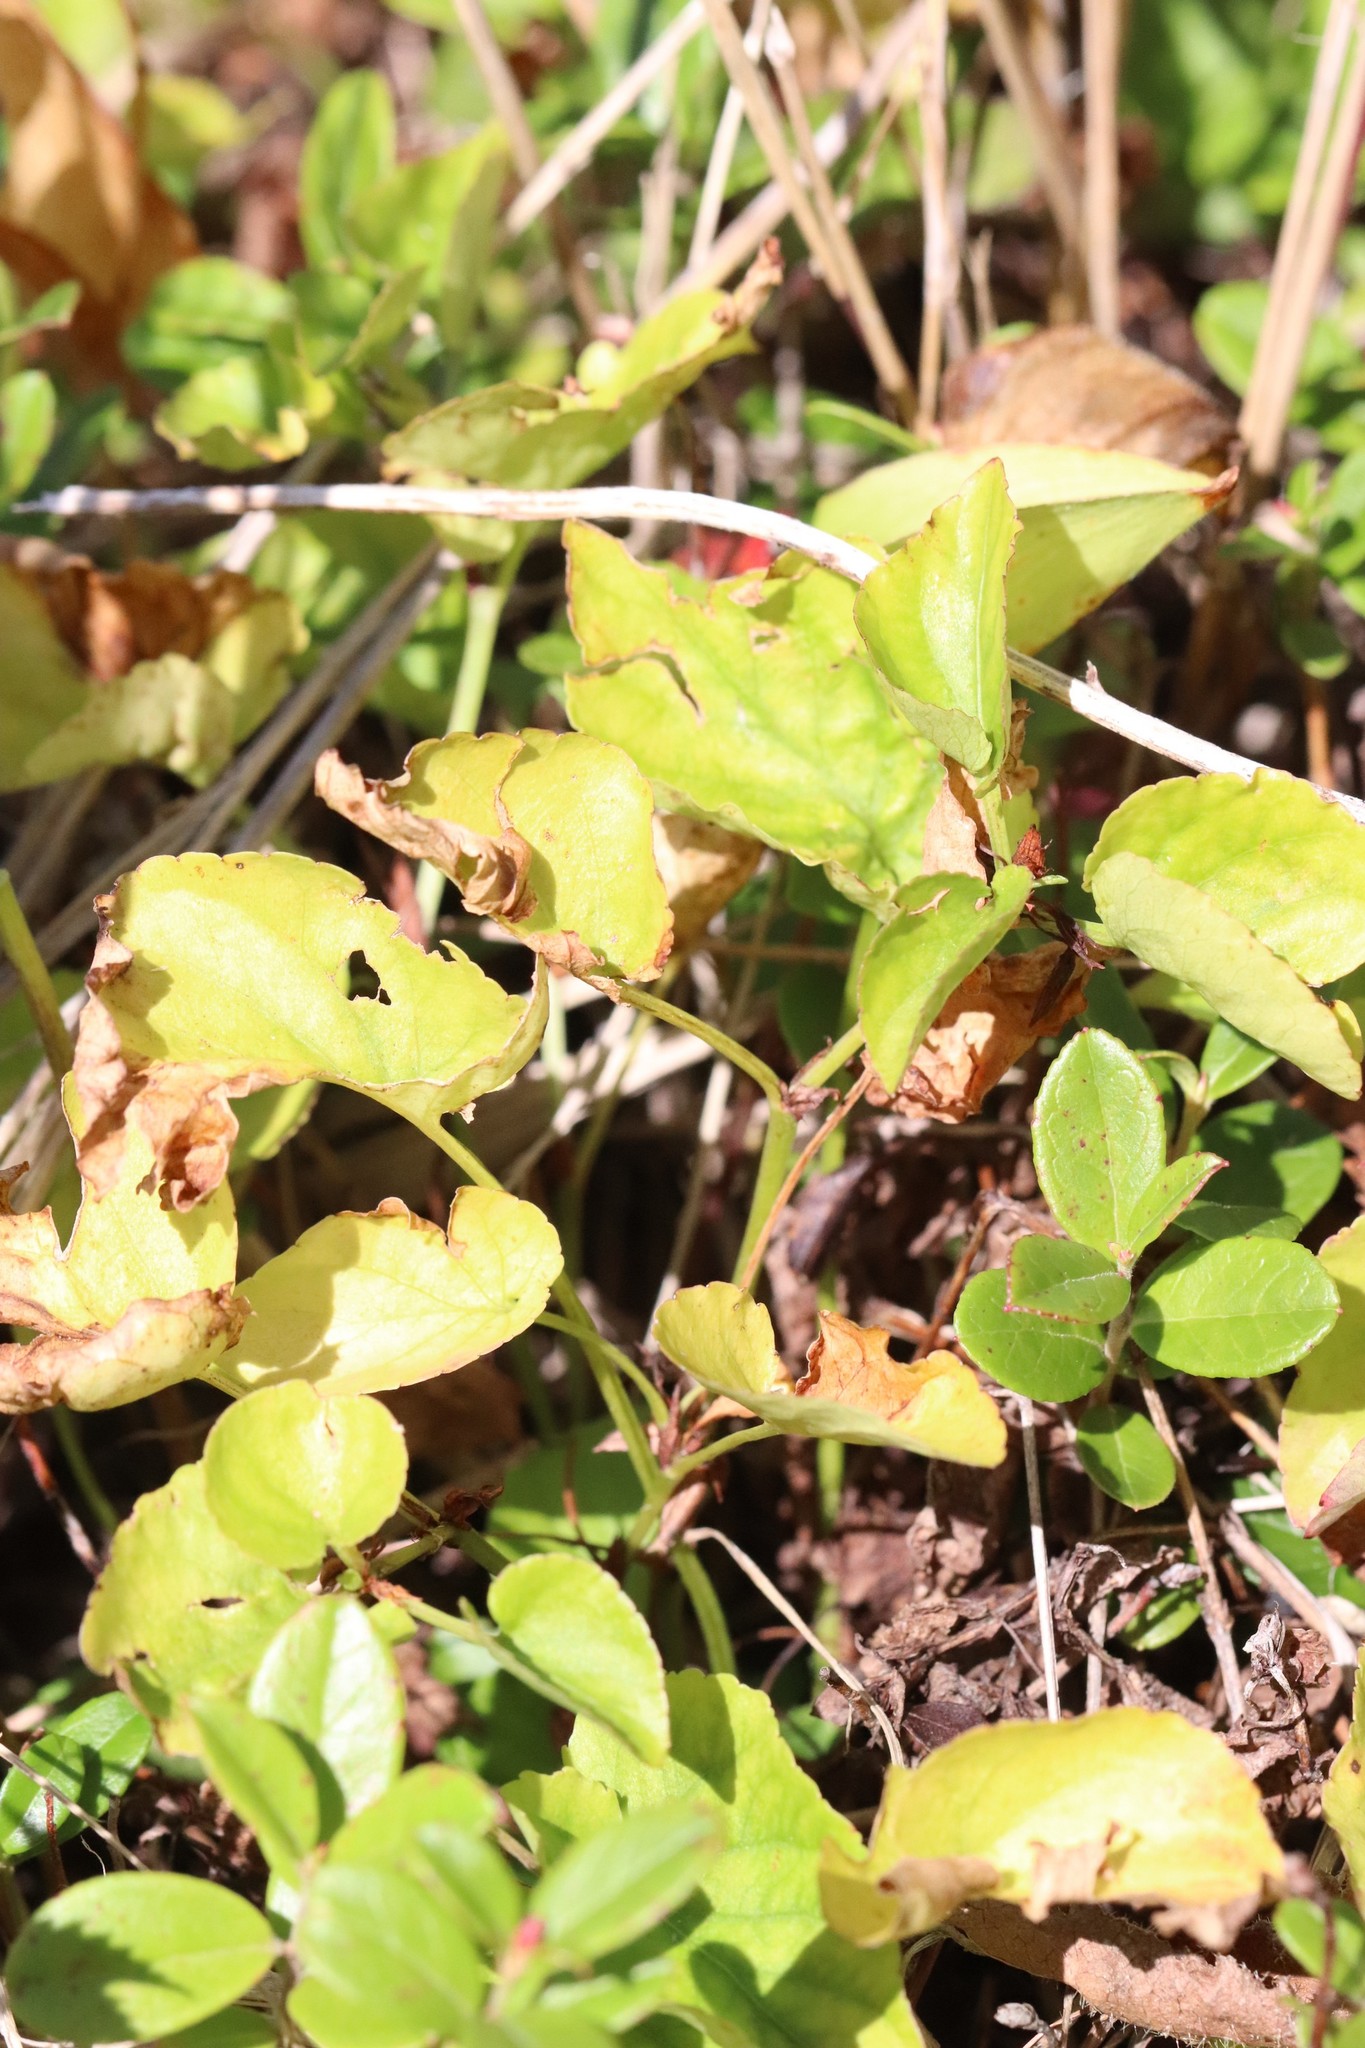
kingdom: Plantae
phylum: Tracheophyta
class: Magnoliopsida
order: Malpighiales
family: Violaceae
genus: Viola
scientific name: Viola sacchalinensis
